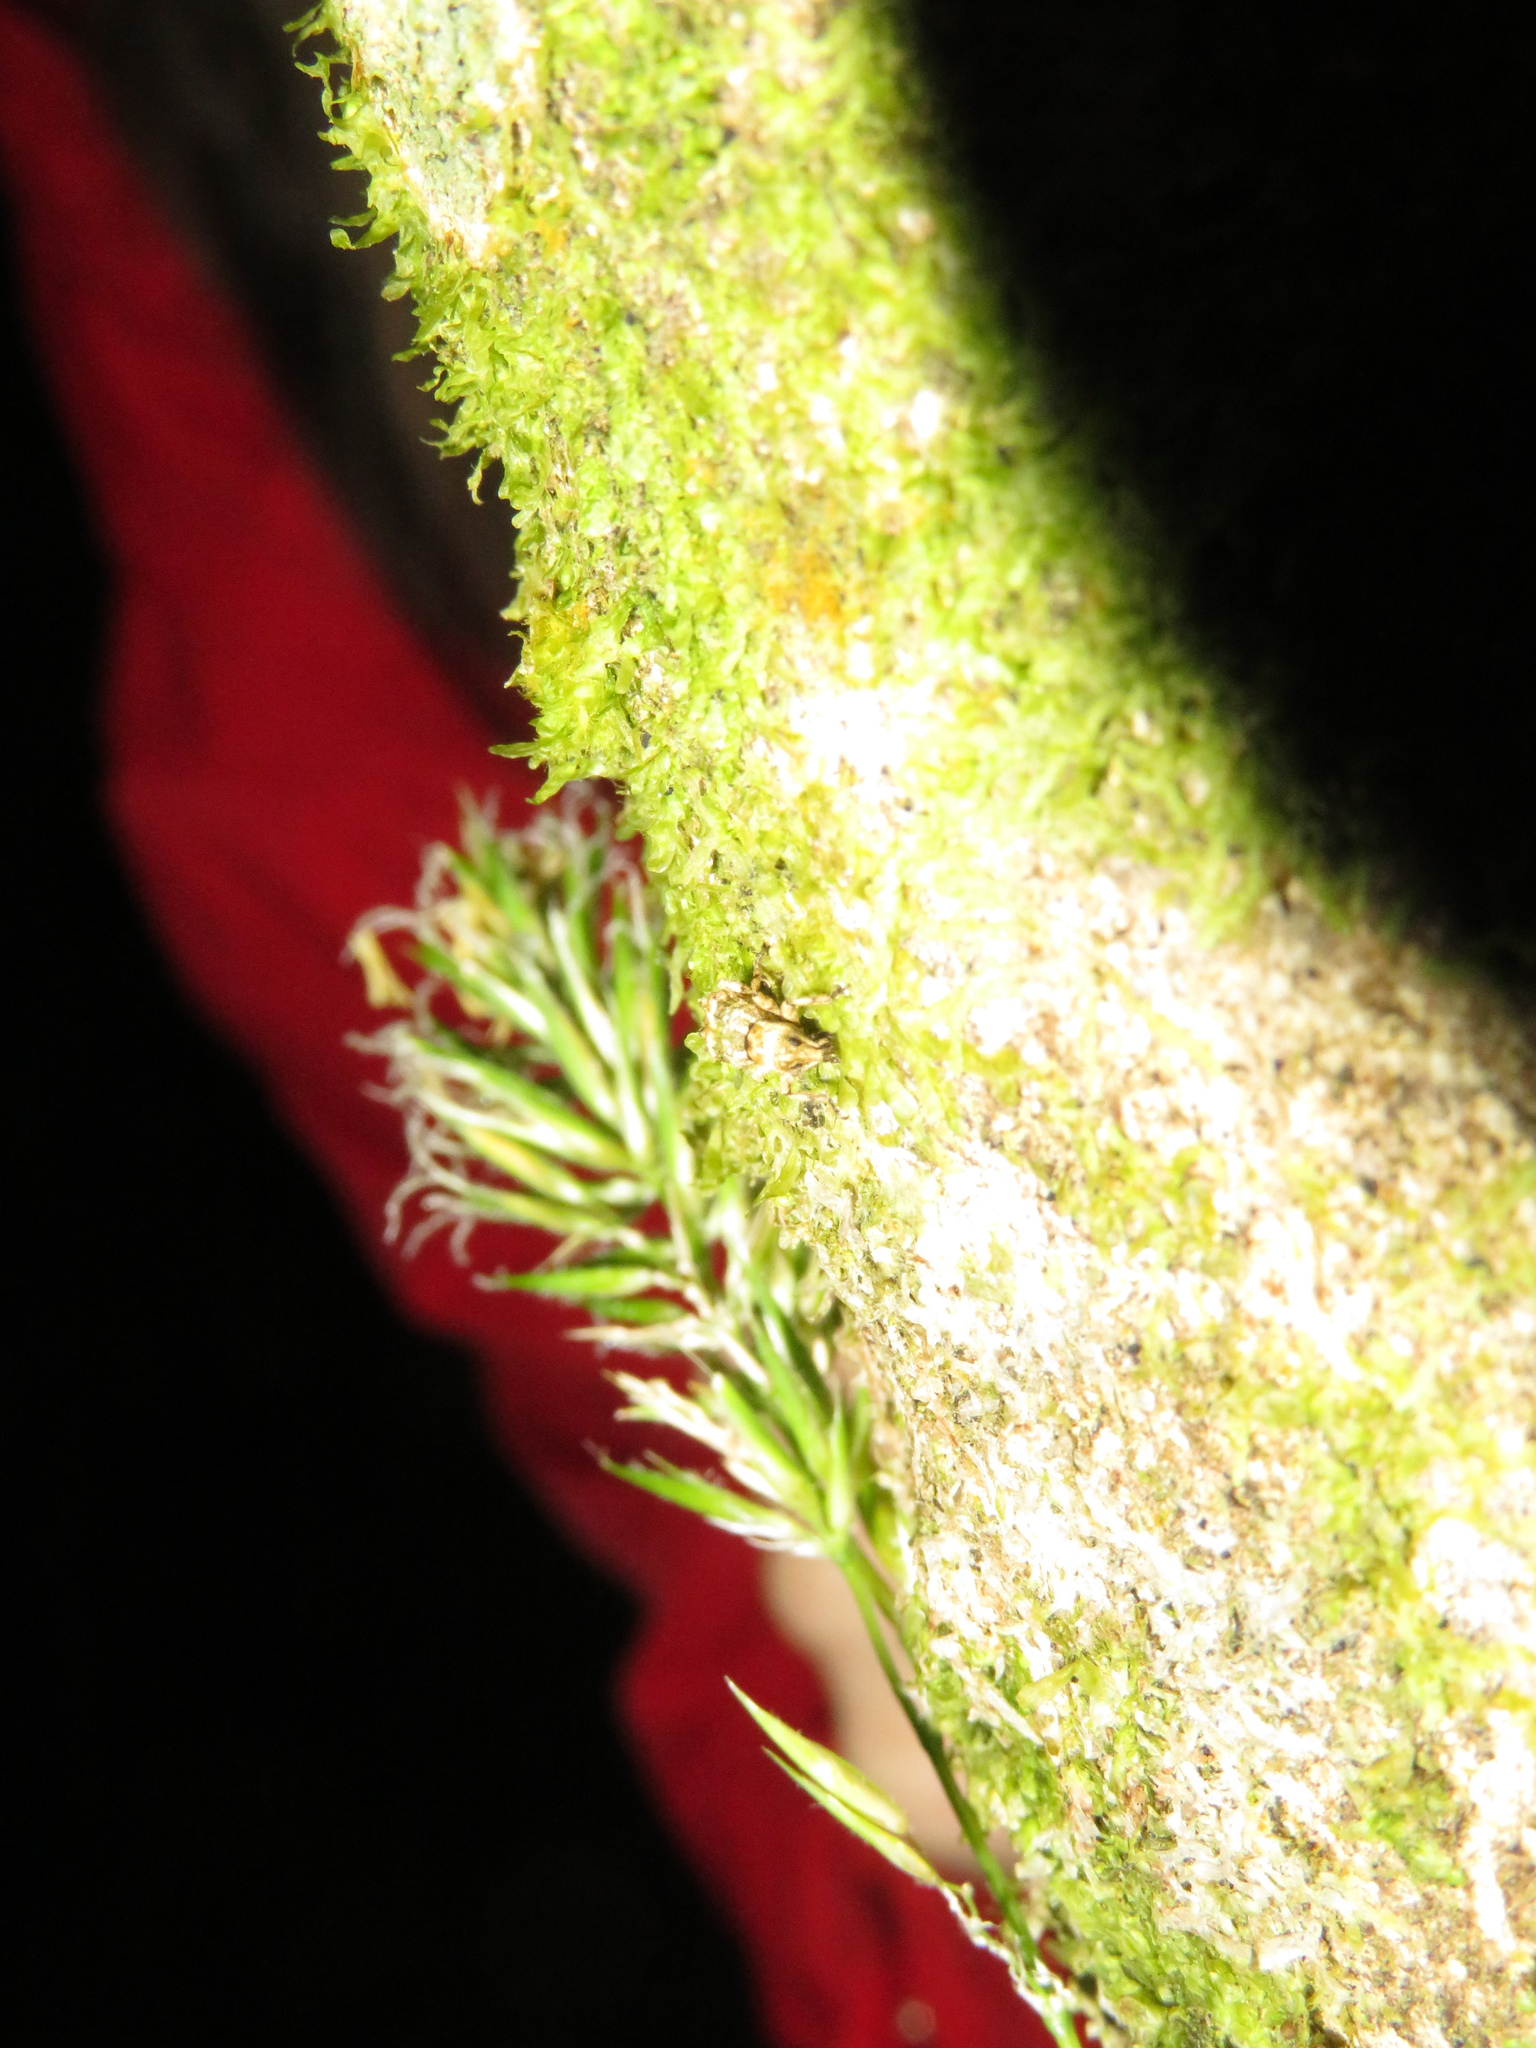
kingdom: Animalia
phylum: Arthropoda
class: Insecta
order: Coleoptera
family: Curculionidae
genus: Brachyolus
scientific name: Brachyolus punctatus
